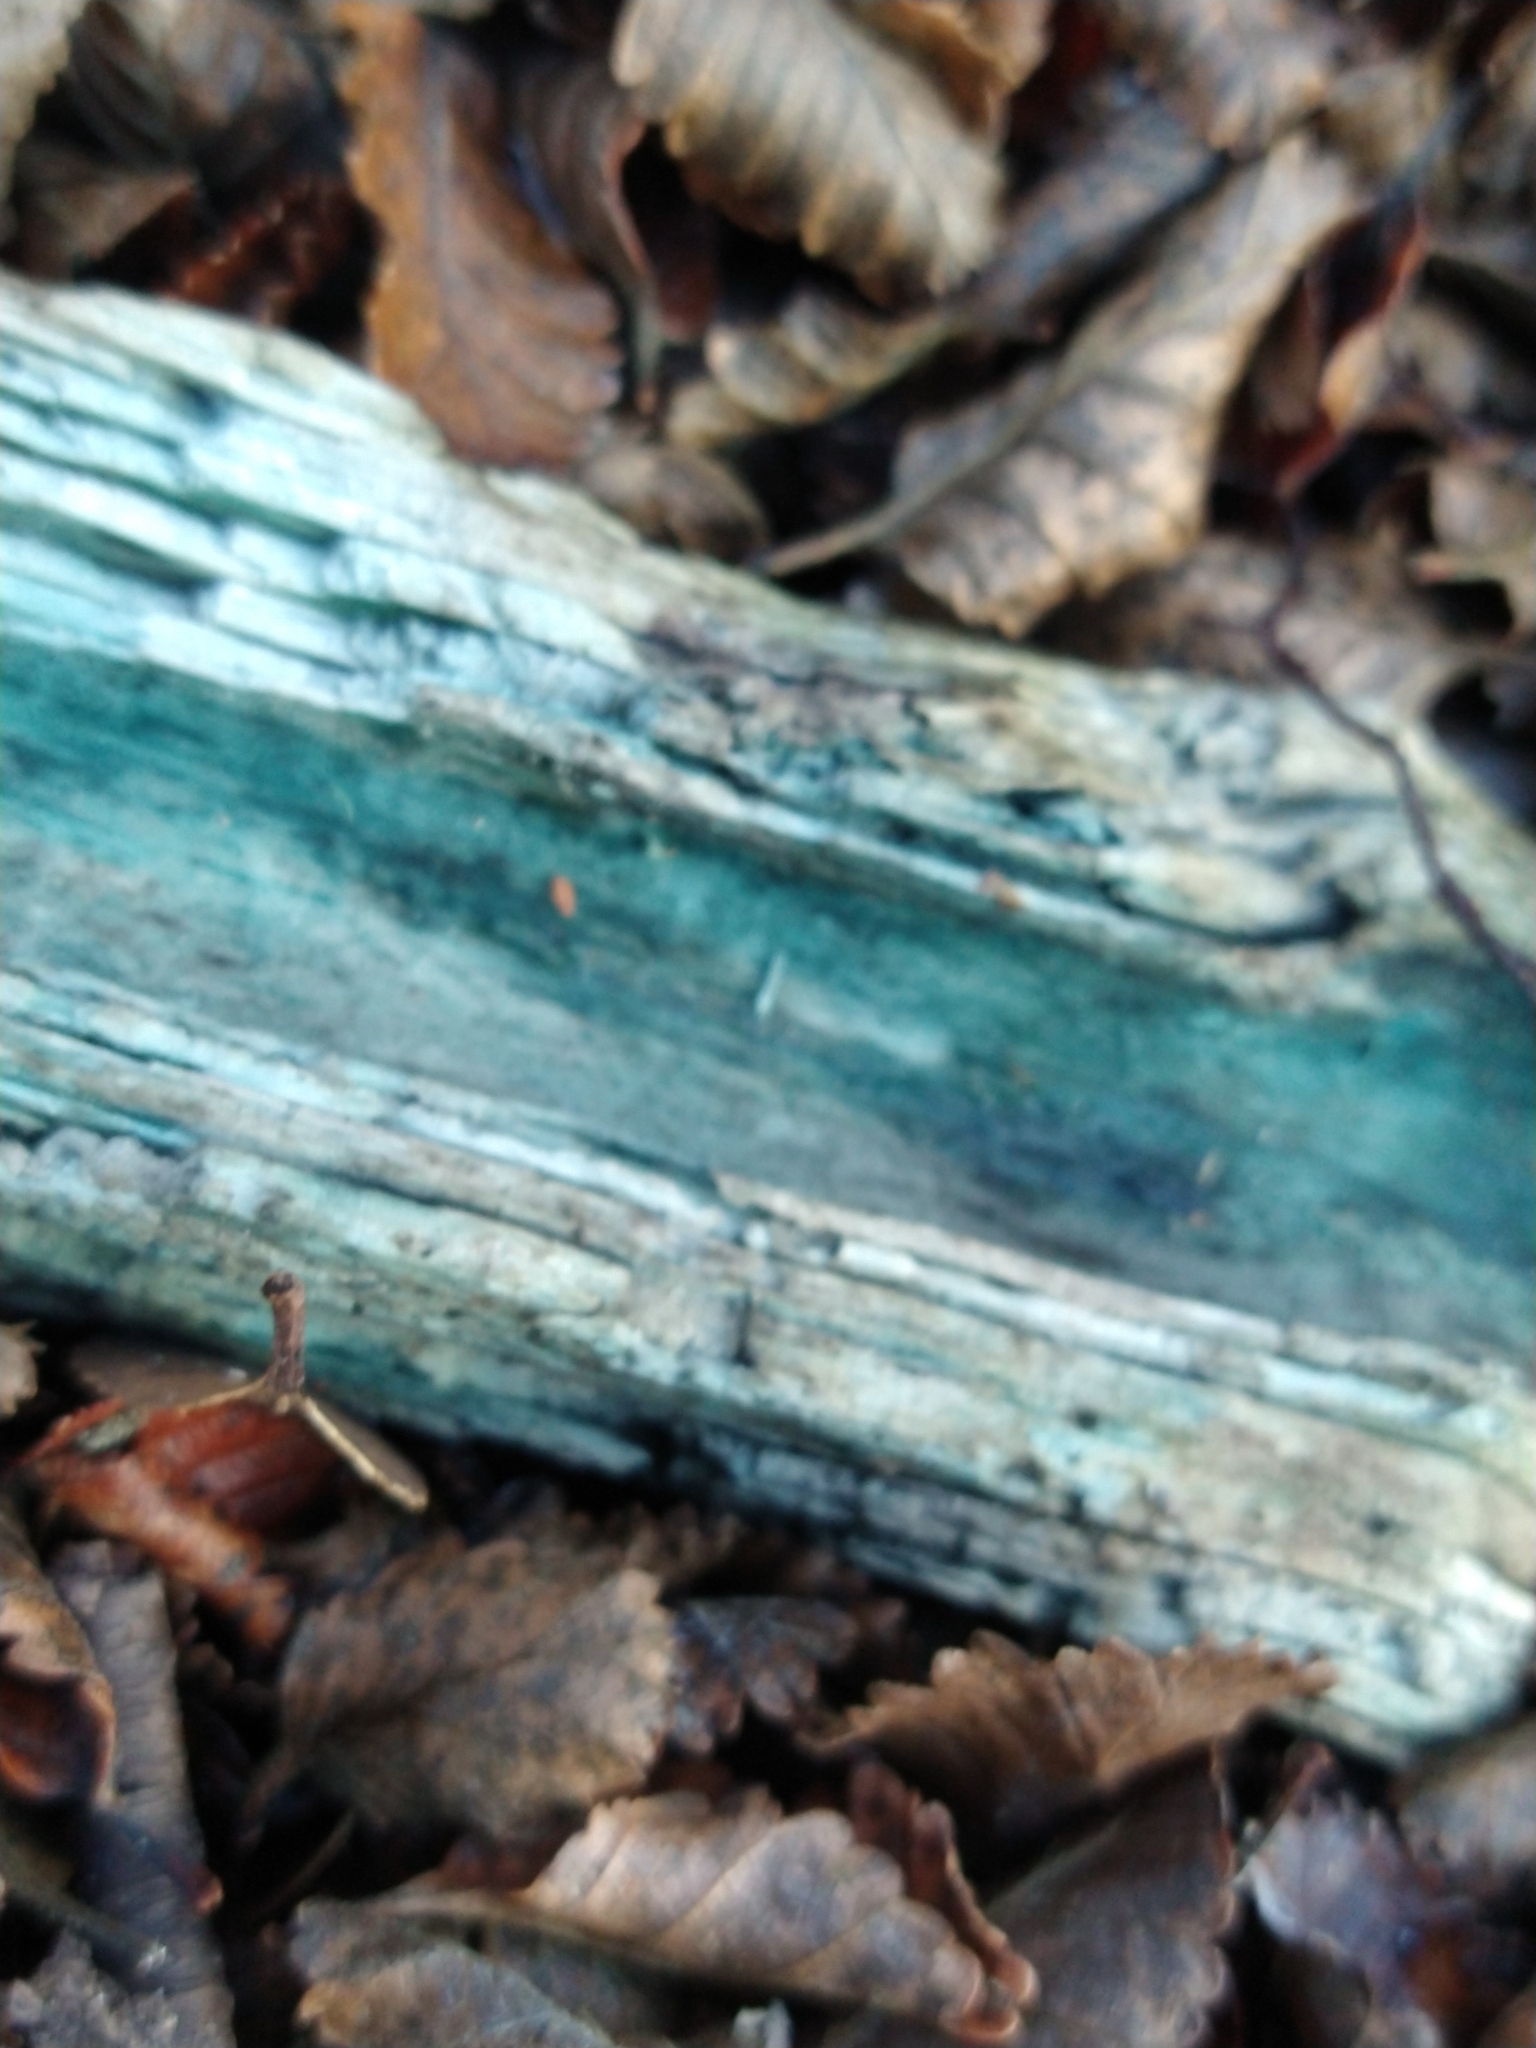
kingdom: Fungi
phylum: Ascomycota
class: Leotiomycetes
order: Helotiales
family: Chlorociboriaceae
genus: Chlorociboria
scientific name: Chlorociboria
